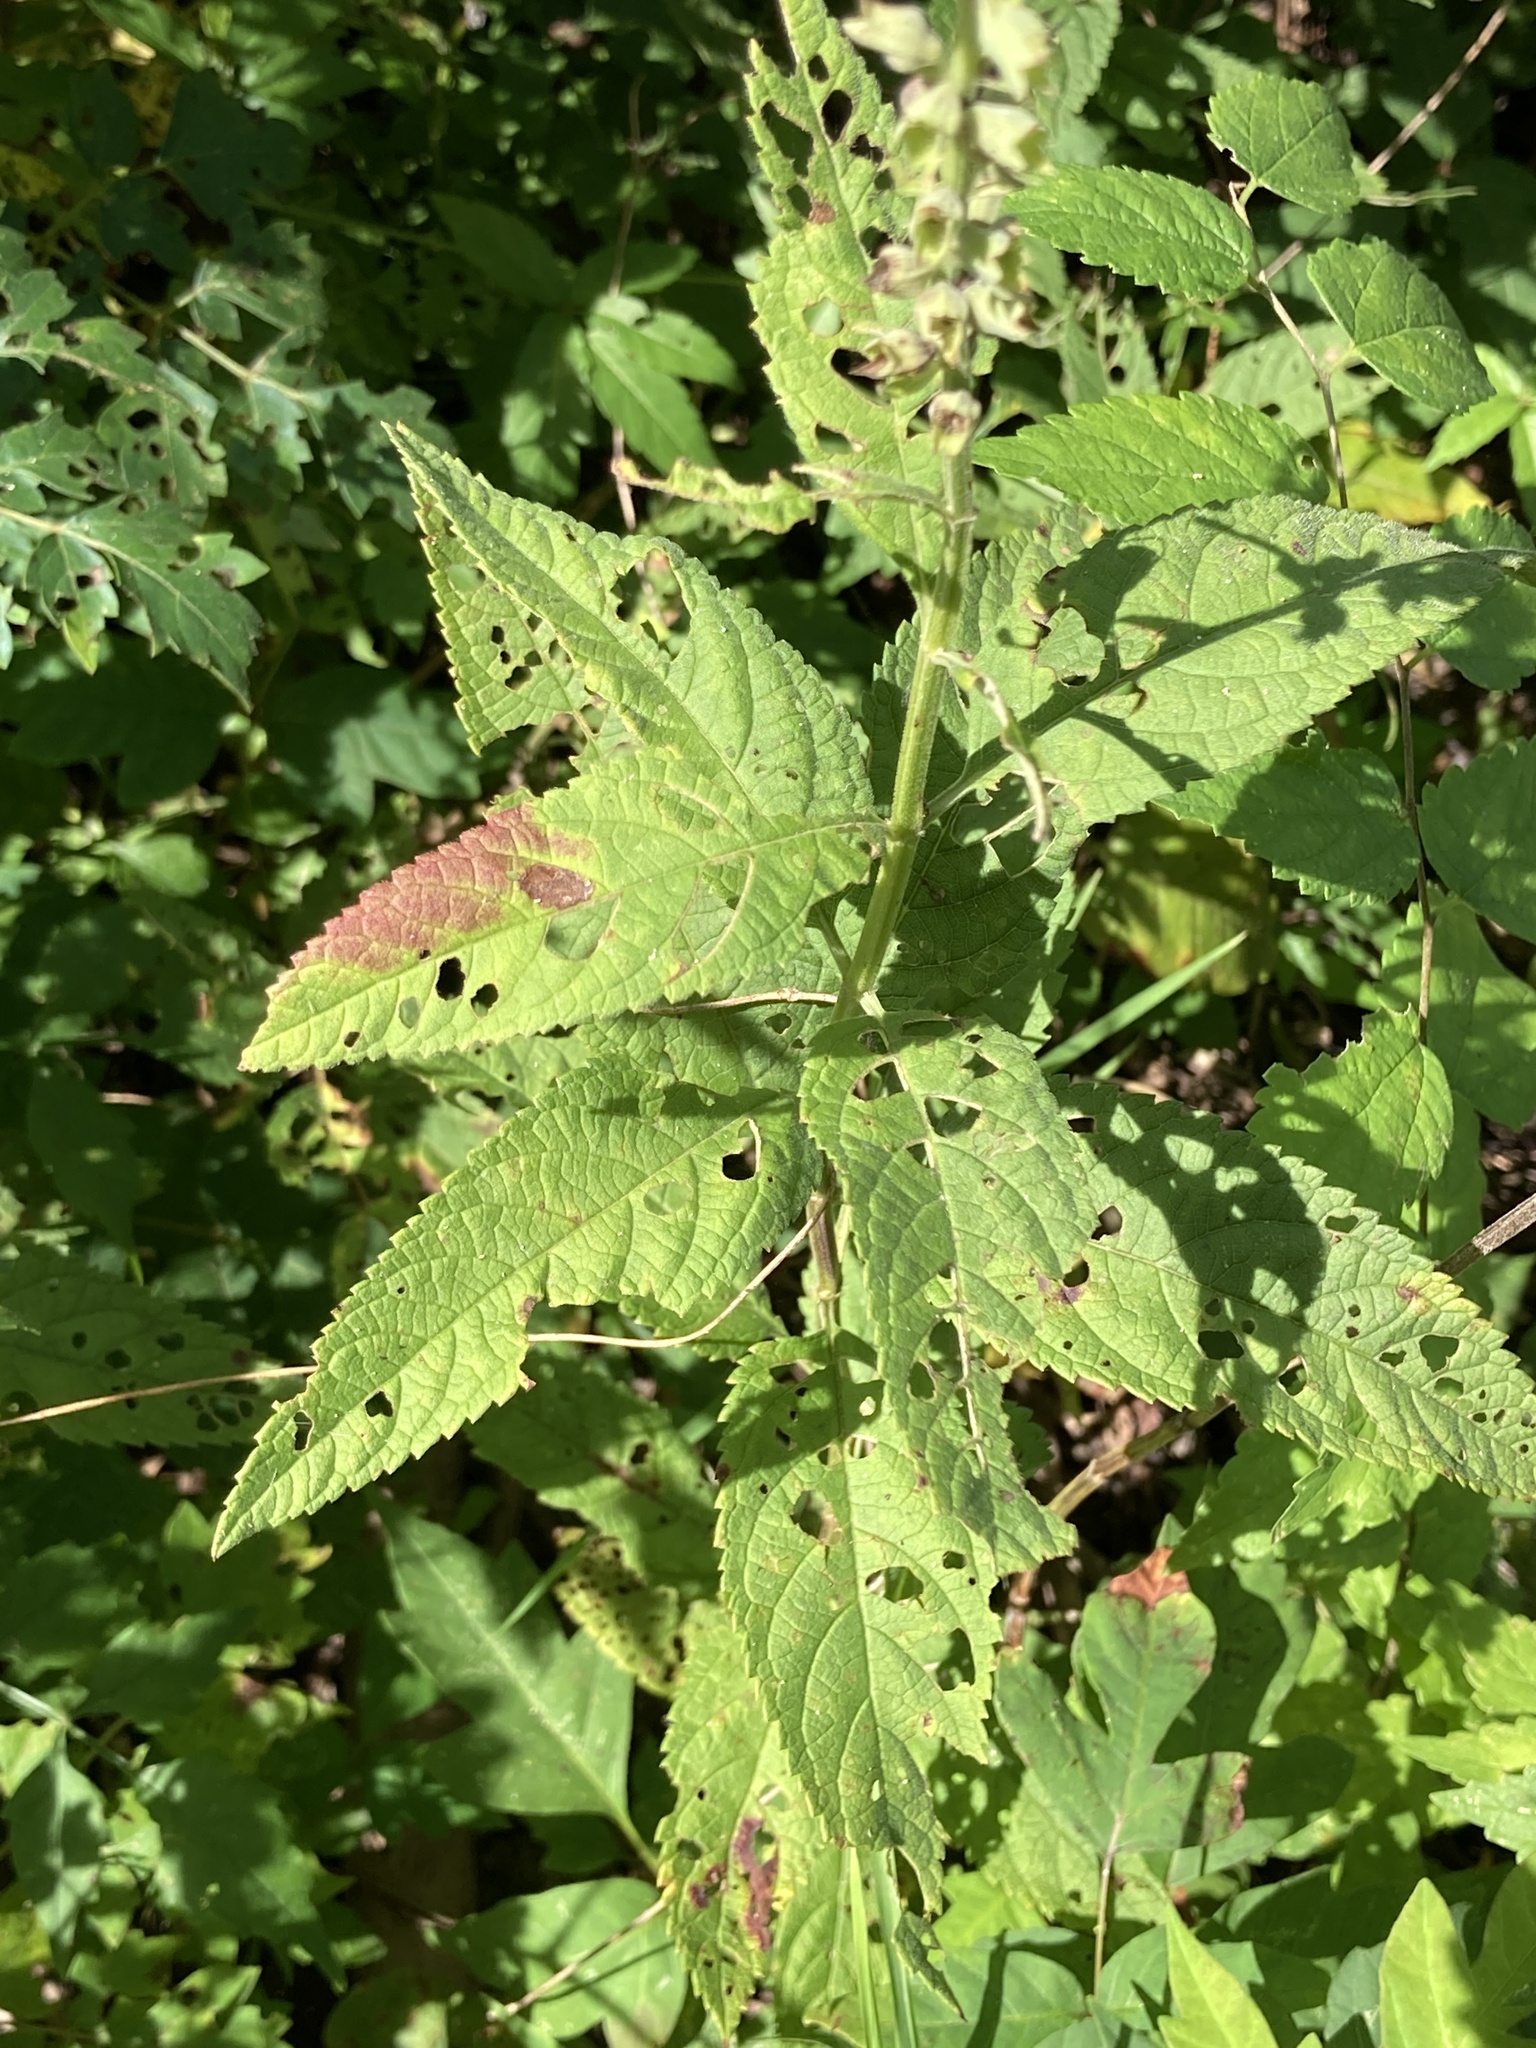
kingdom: Plantae
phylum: Tracheophyta
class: Magnoliopsida
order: Lamiales
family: Lamiaceae
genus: Teucrium
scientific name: Teucrium canadense
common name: American germander
